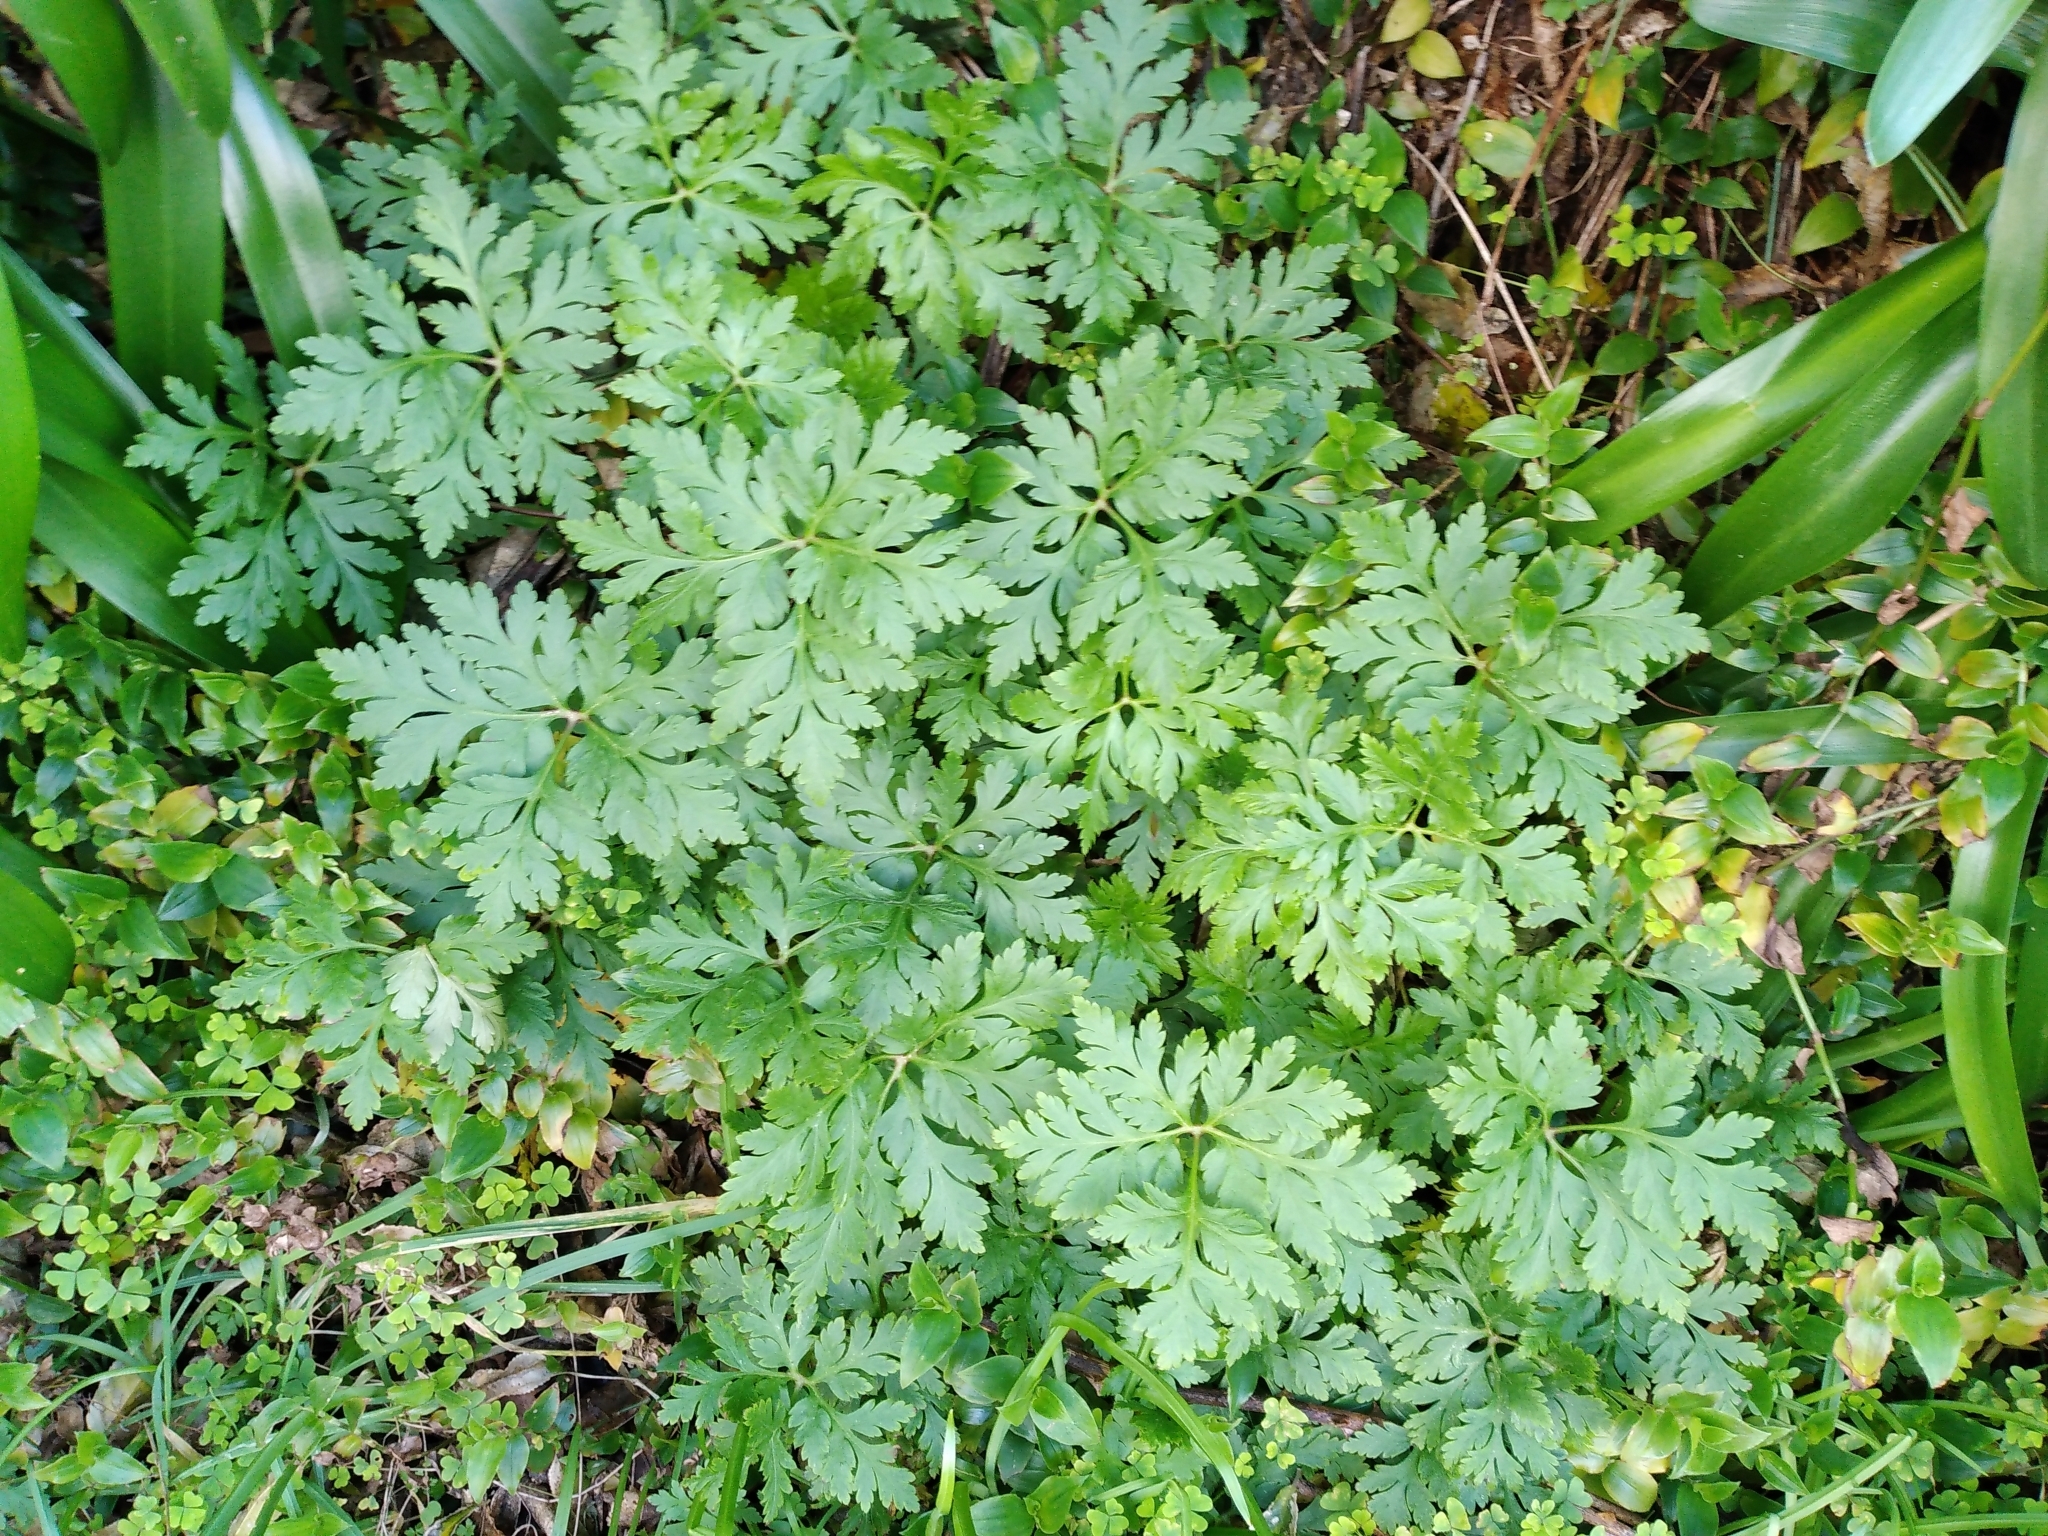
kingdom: Plantae
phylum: Tracheophyta
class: Magnoliopsida
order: Geraniales
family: Geraniaceae
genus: Geranium
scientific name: Geranium maderense
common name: Giant herb-robert
